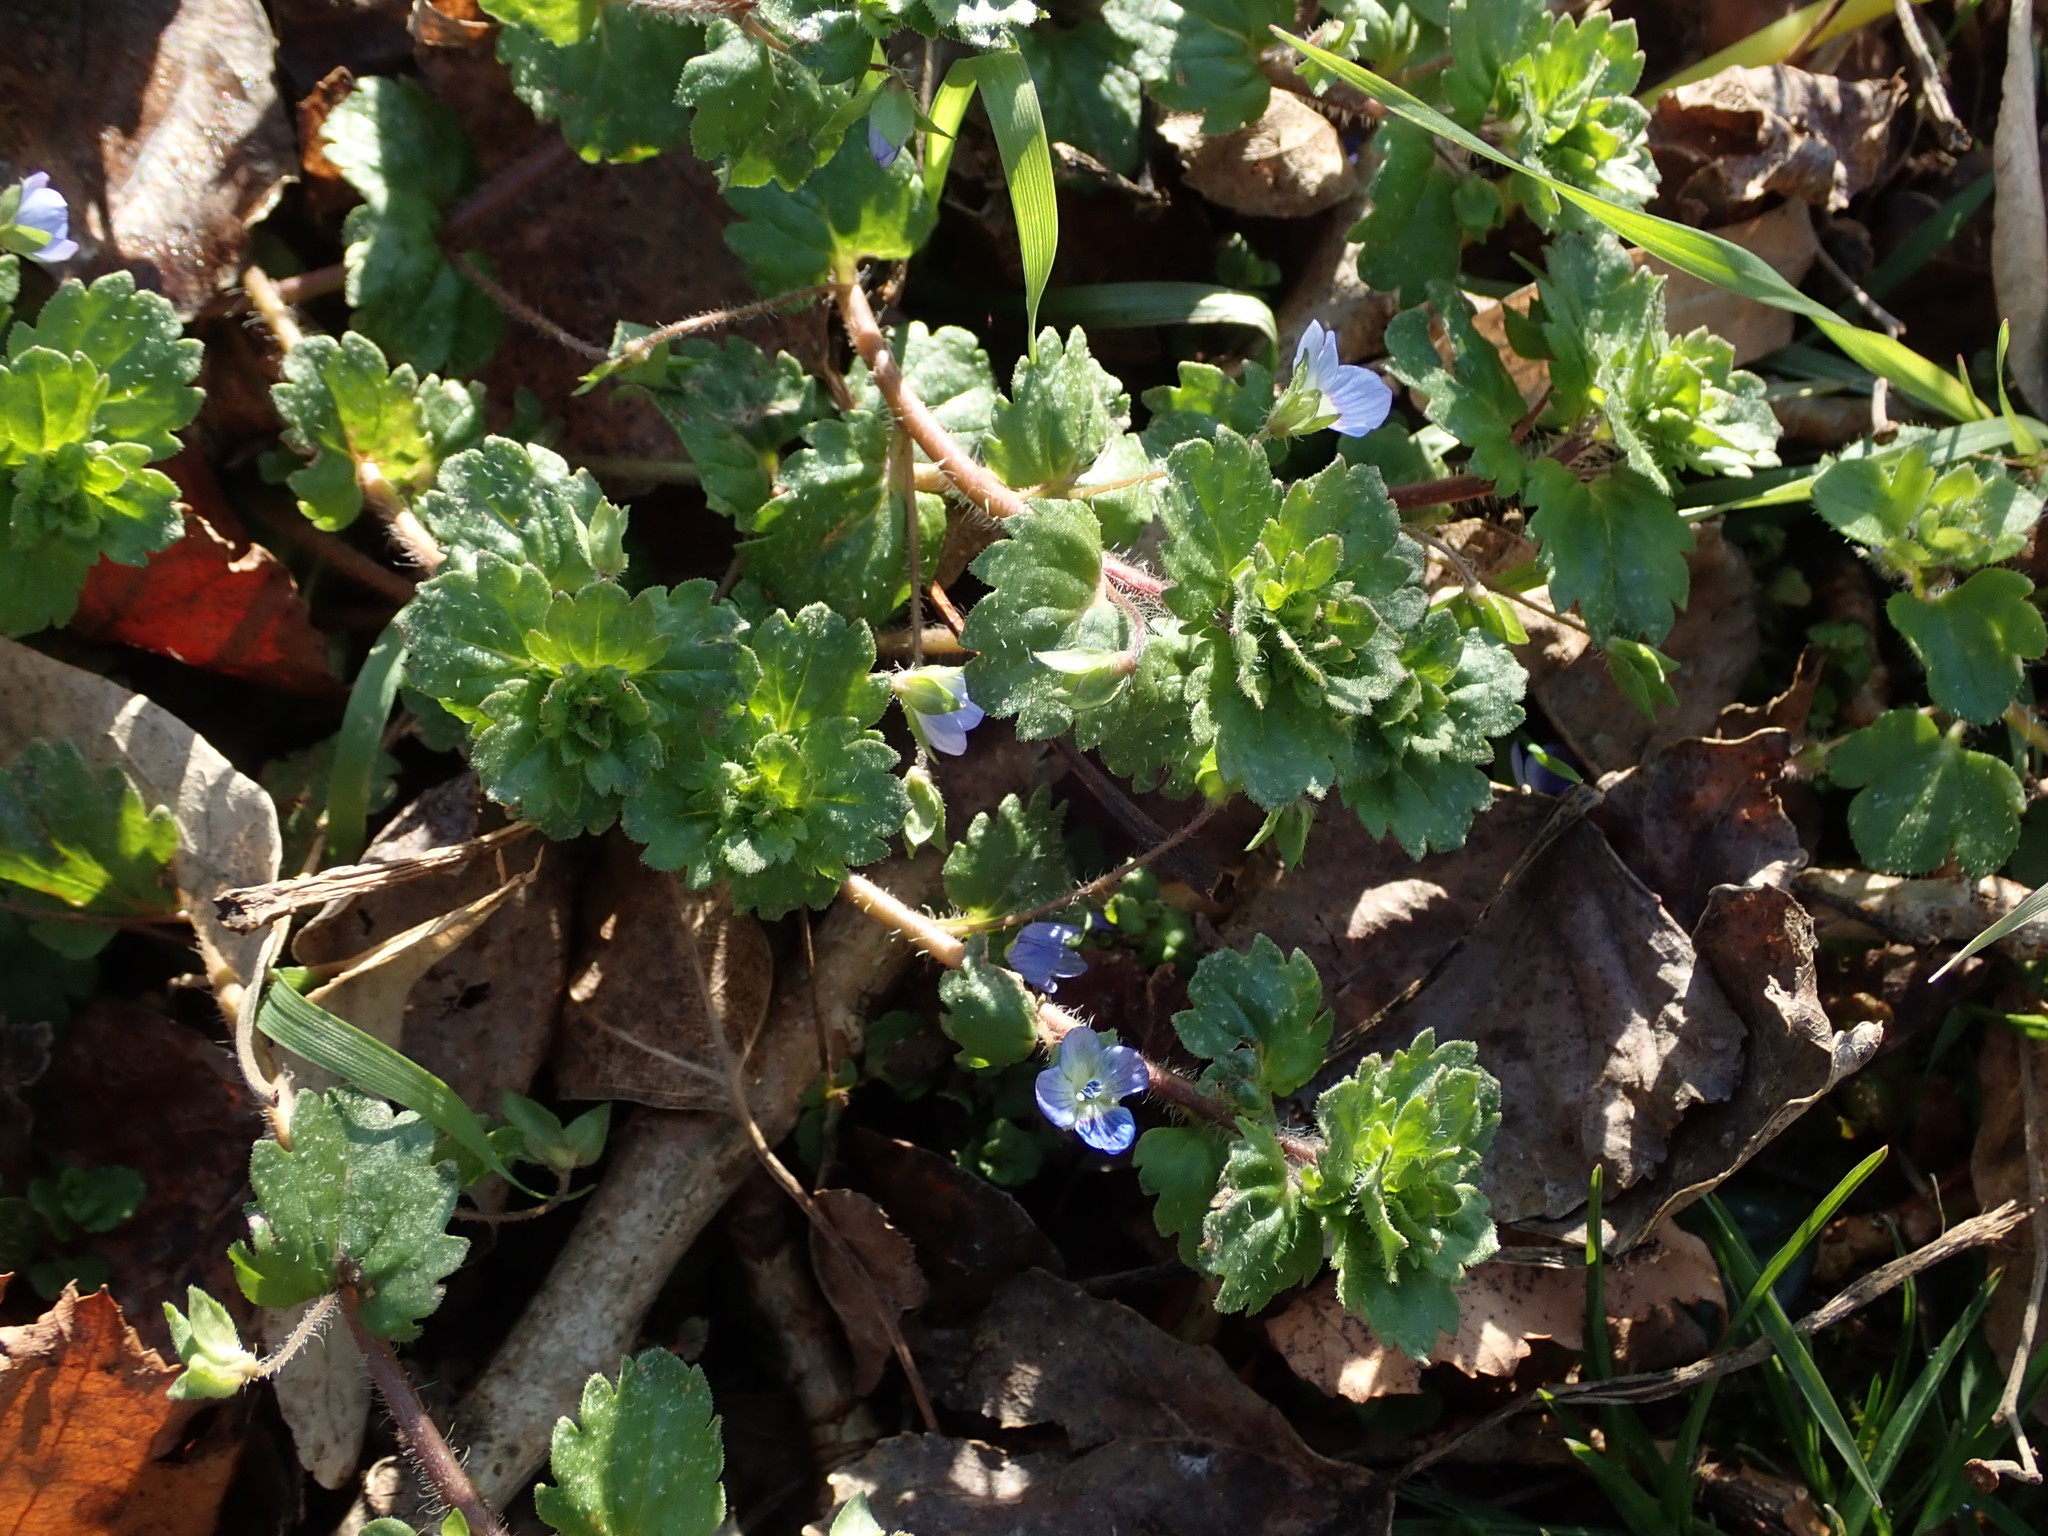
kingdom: Plantae
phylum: Tracheophyta
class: Magnoliopsida
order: Lamiales
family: Plantaginaceae
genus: Veronica
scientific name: Veronica persica
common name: Common field-speedwell
